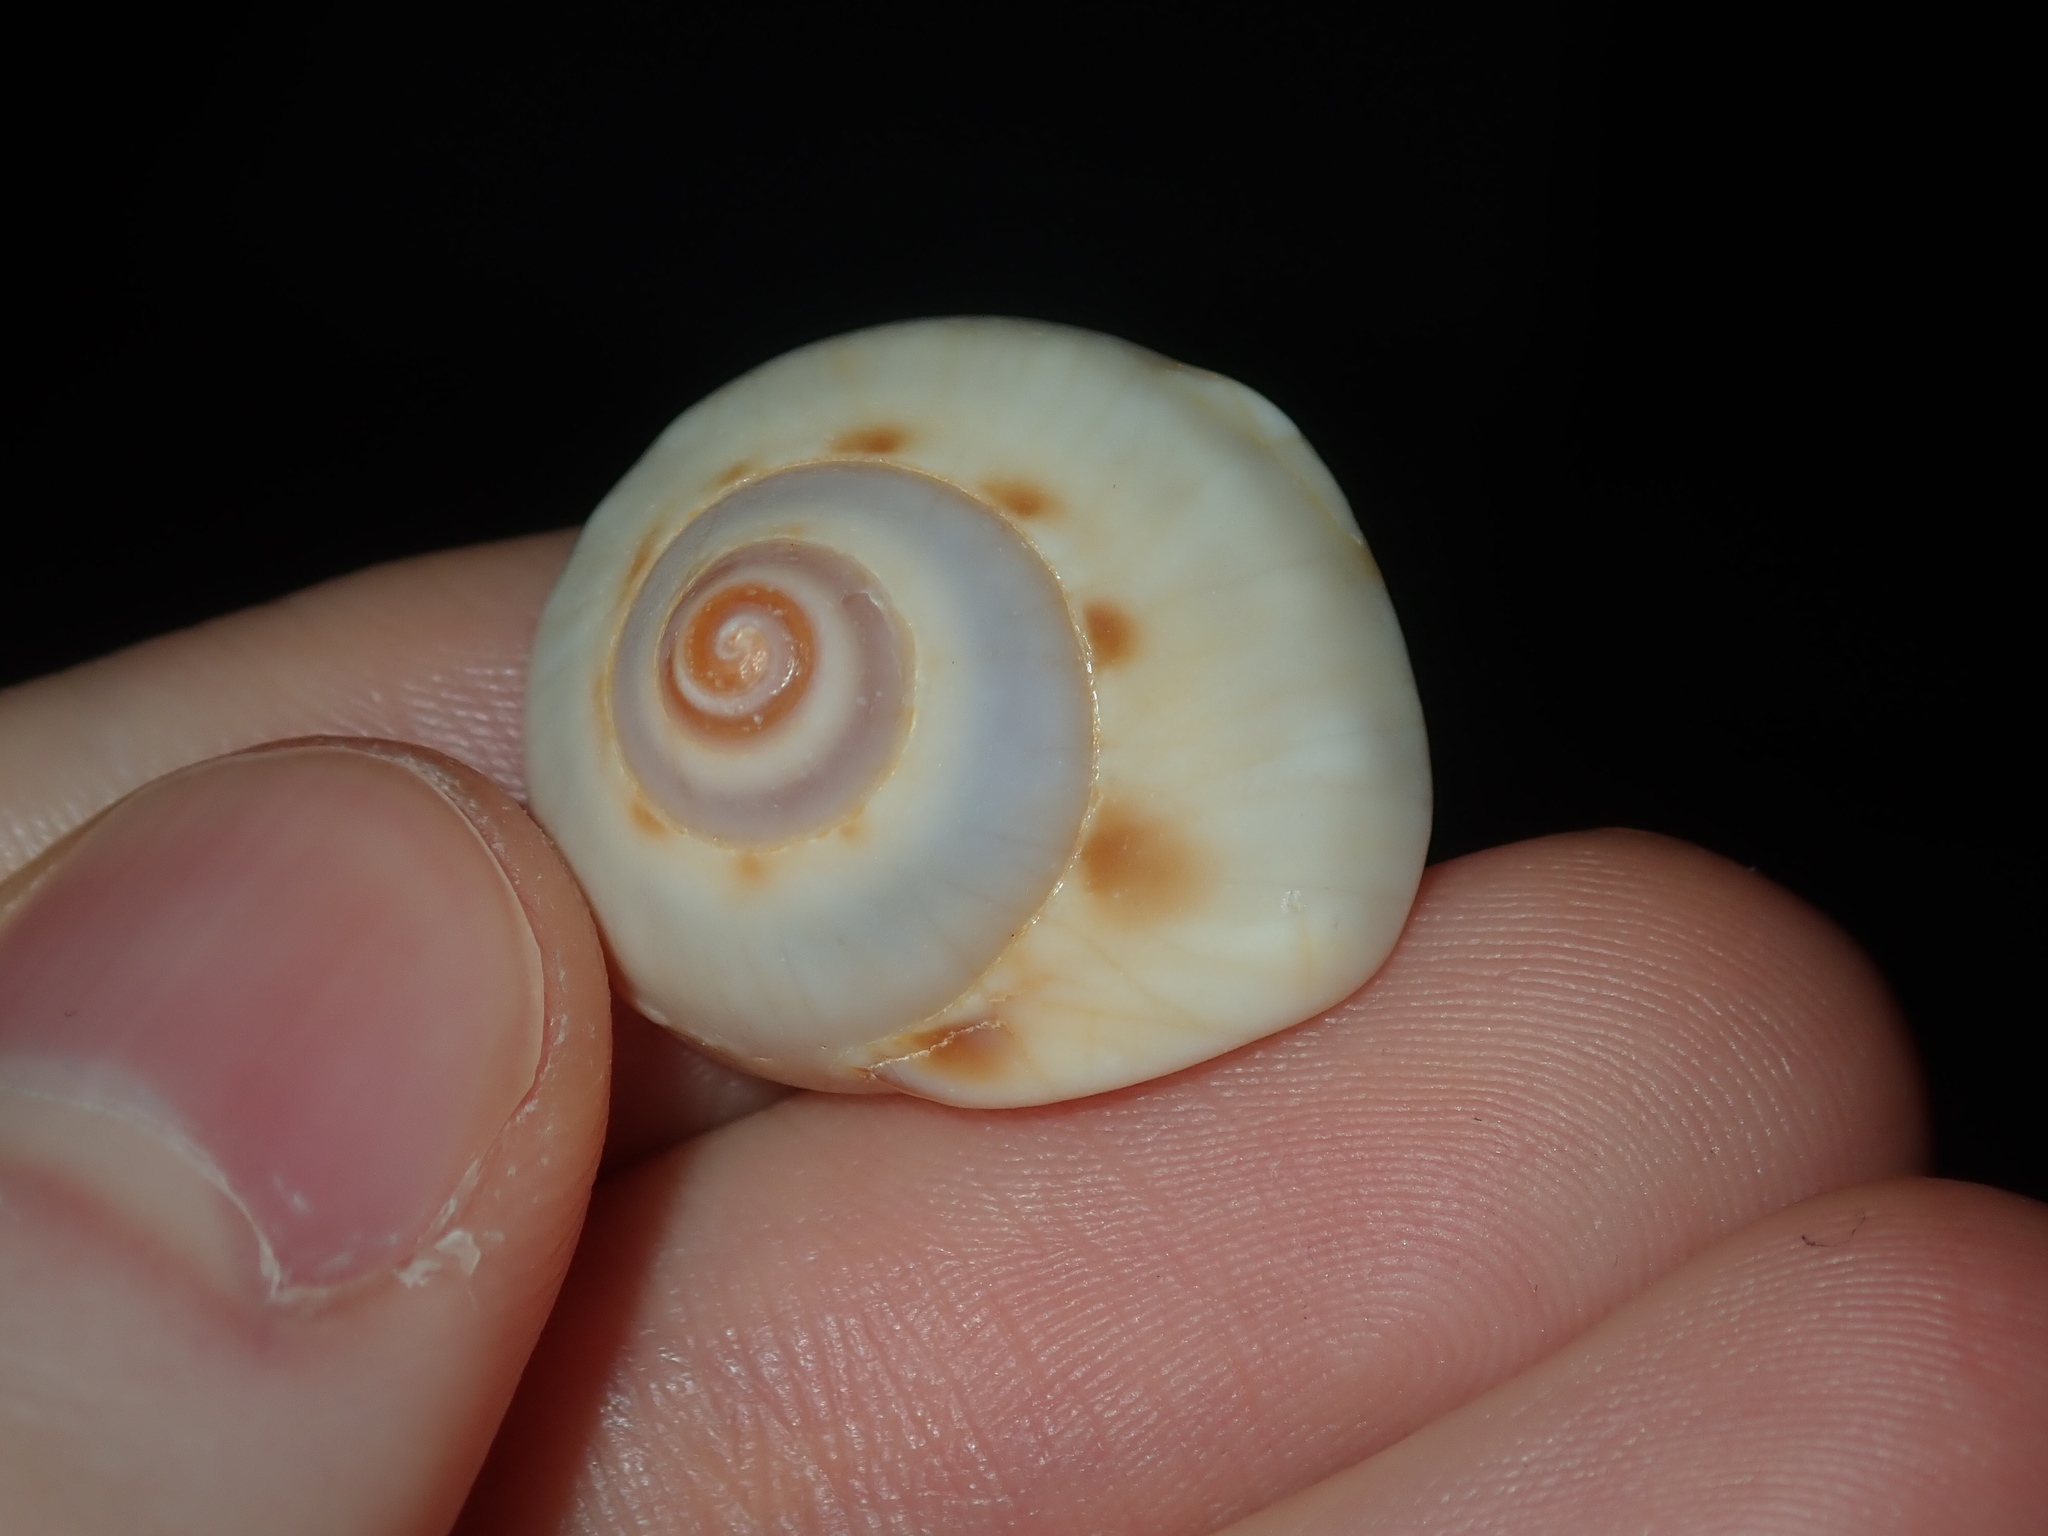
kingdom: Animalia
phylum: Mollusca
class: Gastropoda
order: Littorinimorpha
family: Cassidae
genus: Semicassis
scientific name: Semicassis labiata
